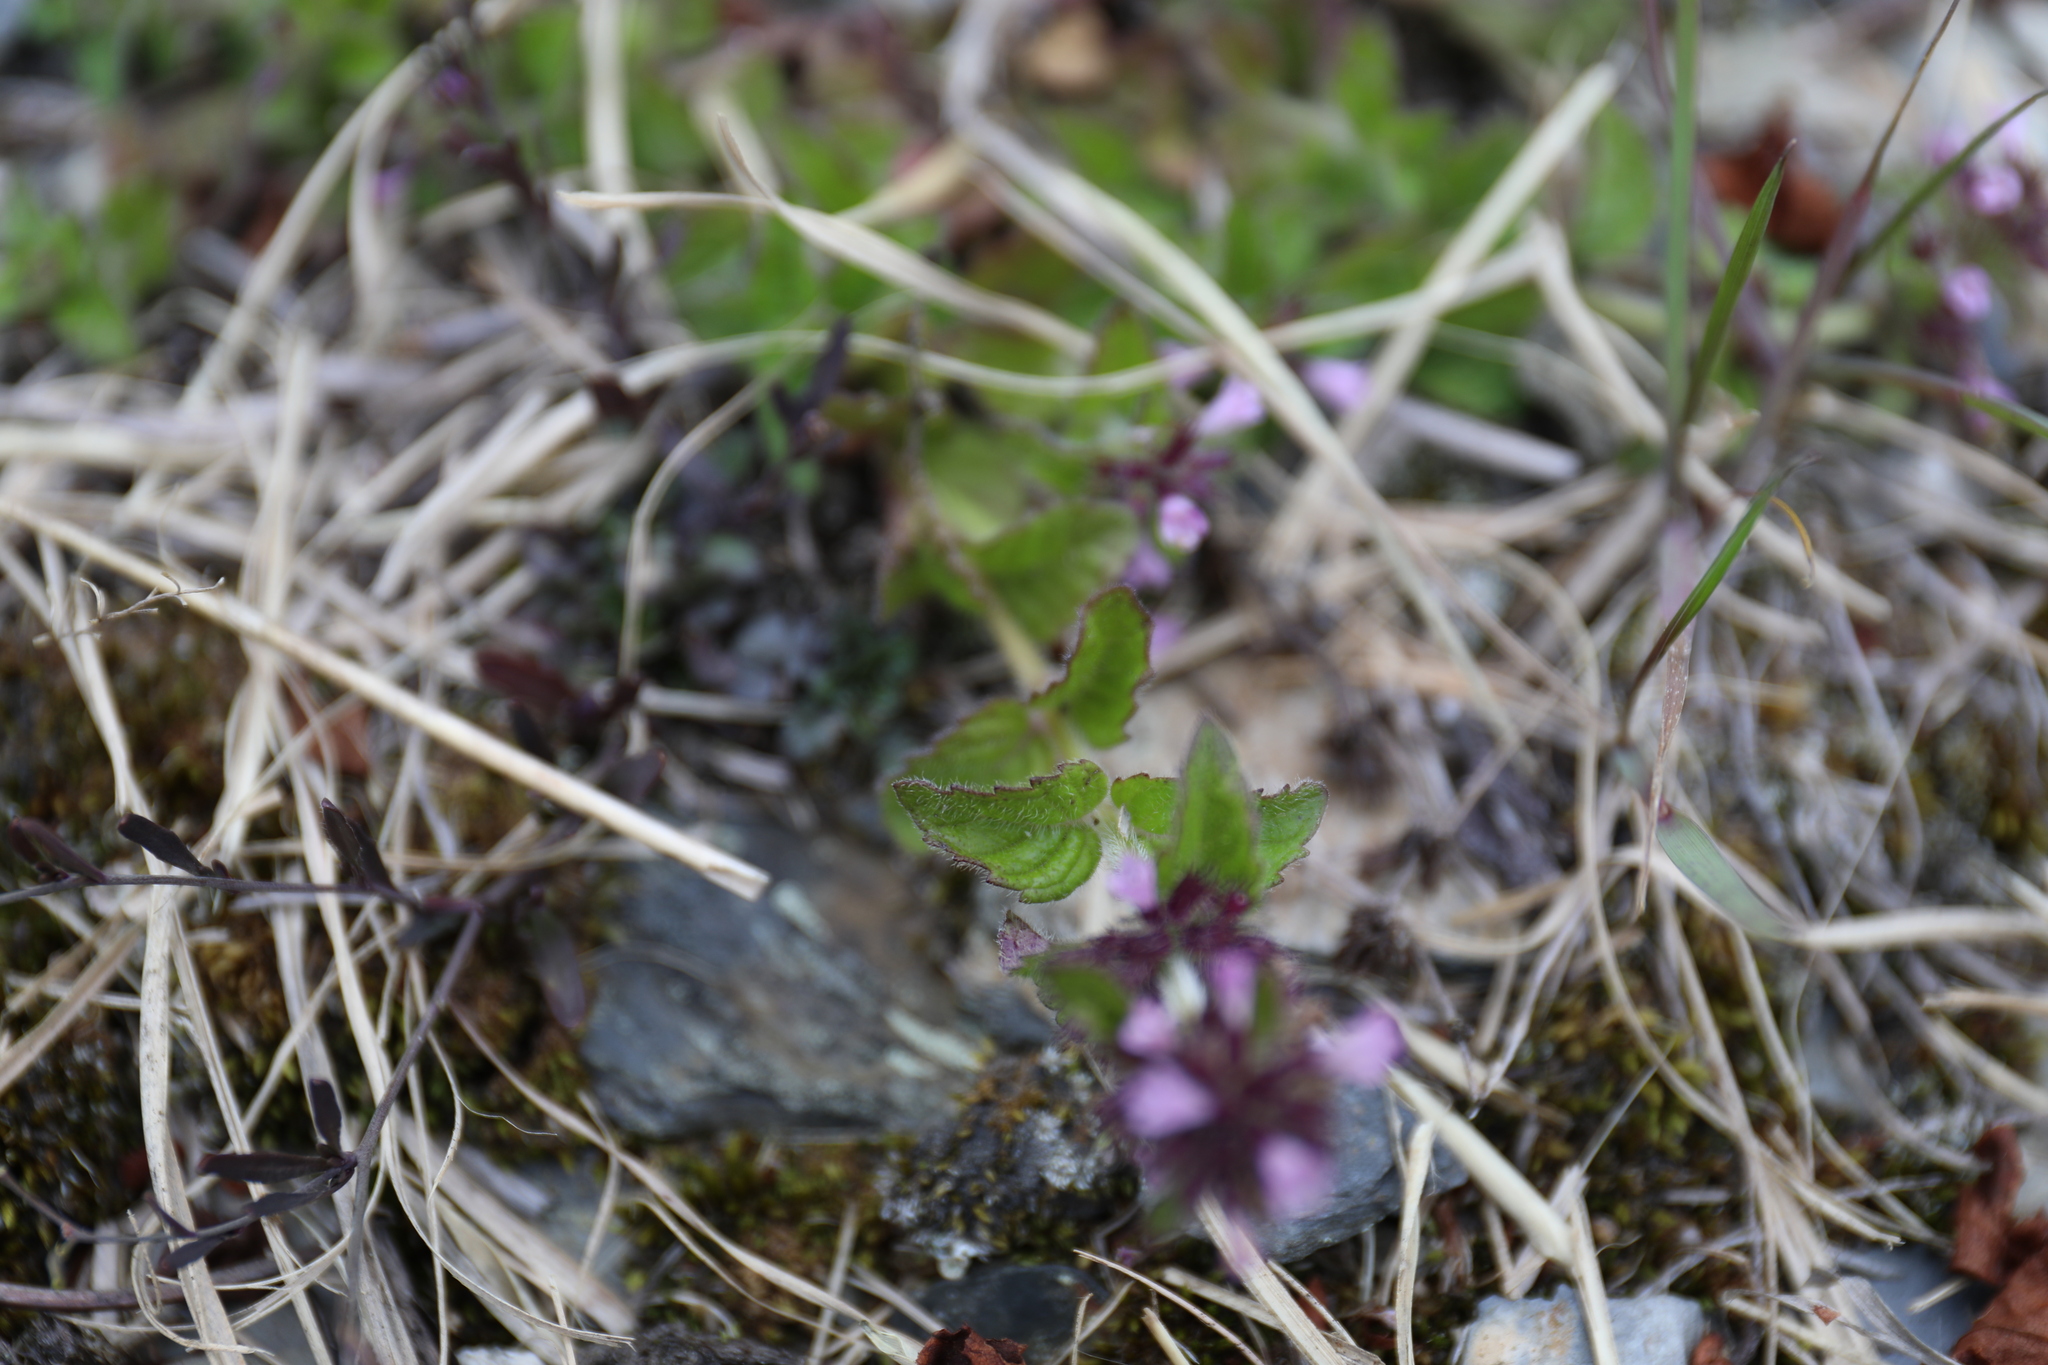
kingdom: Plantae
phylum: Tracheophyta
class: Magnoliopsida
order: Lamiales
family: Lamiaceae
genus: Clinopodium
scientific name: Clinopodium chinense
